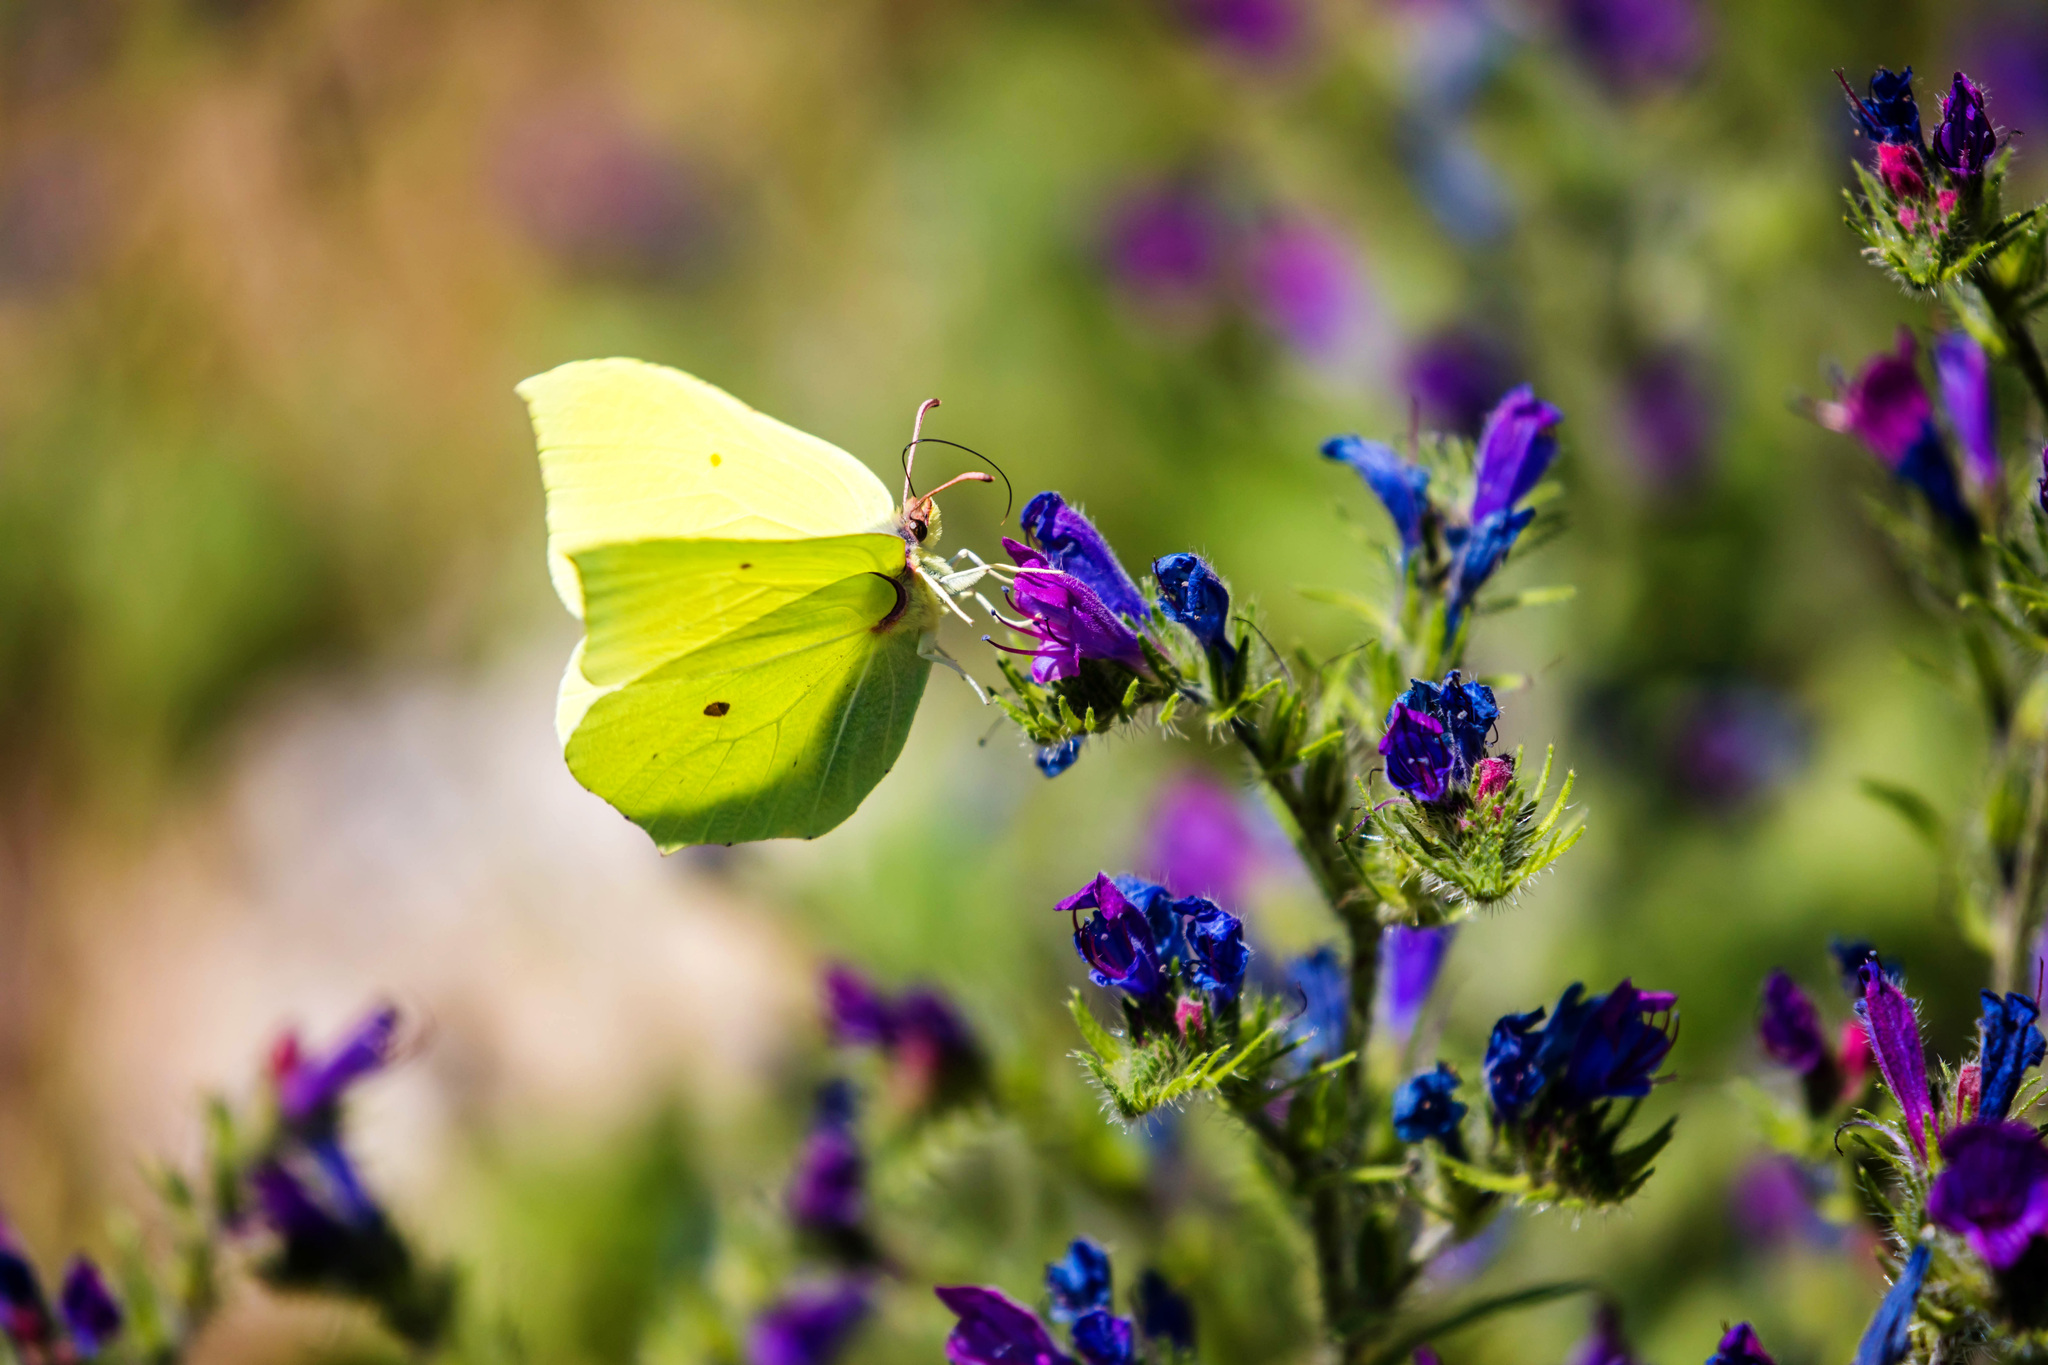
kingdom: Animalia
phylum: Arthropoda
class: Insecta
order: Lepidoptera
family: Pieridae
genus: Gonepteryx
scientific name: Gonepteryx rhamni
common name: Brimstone
